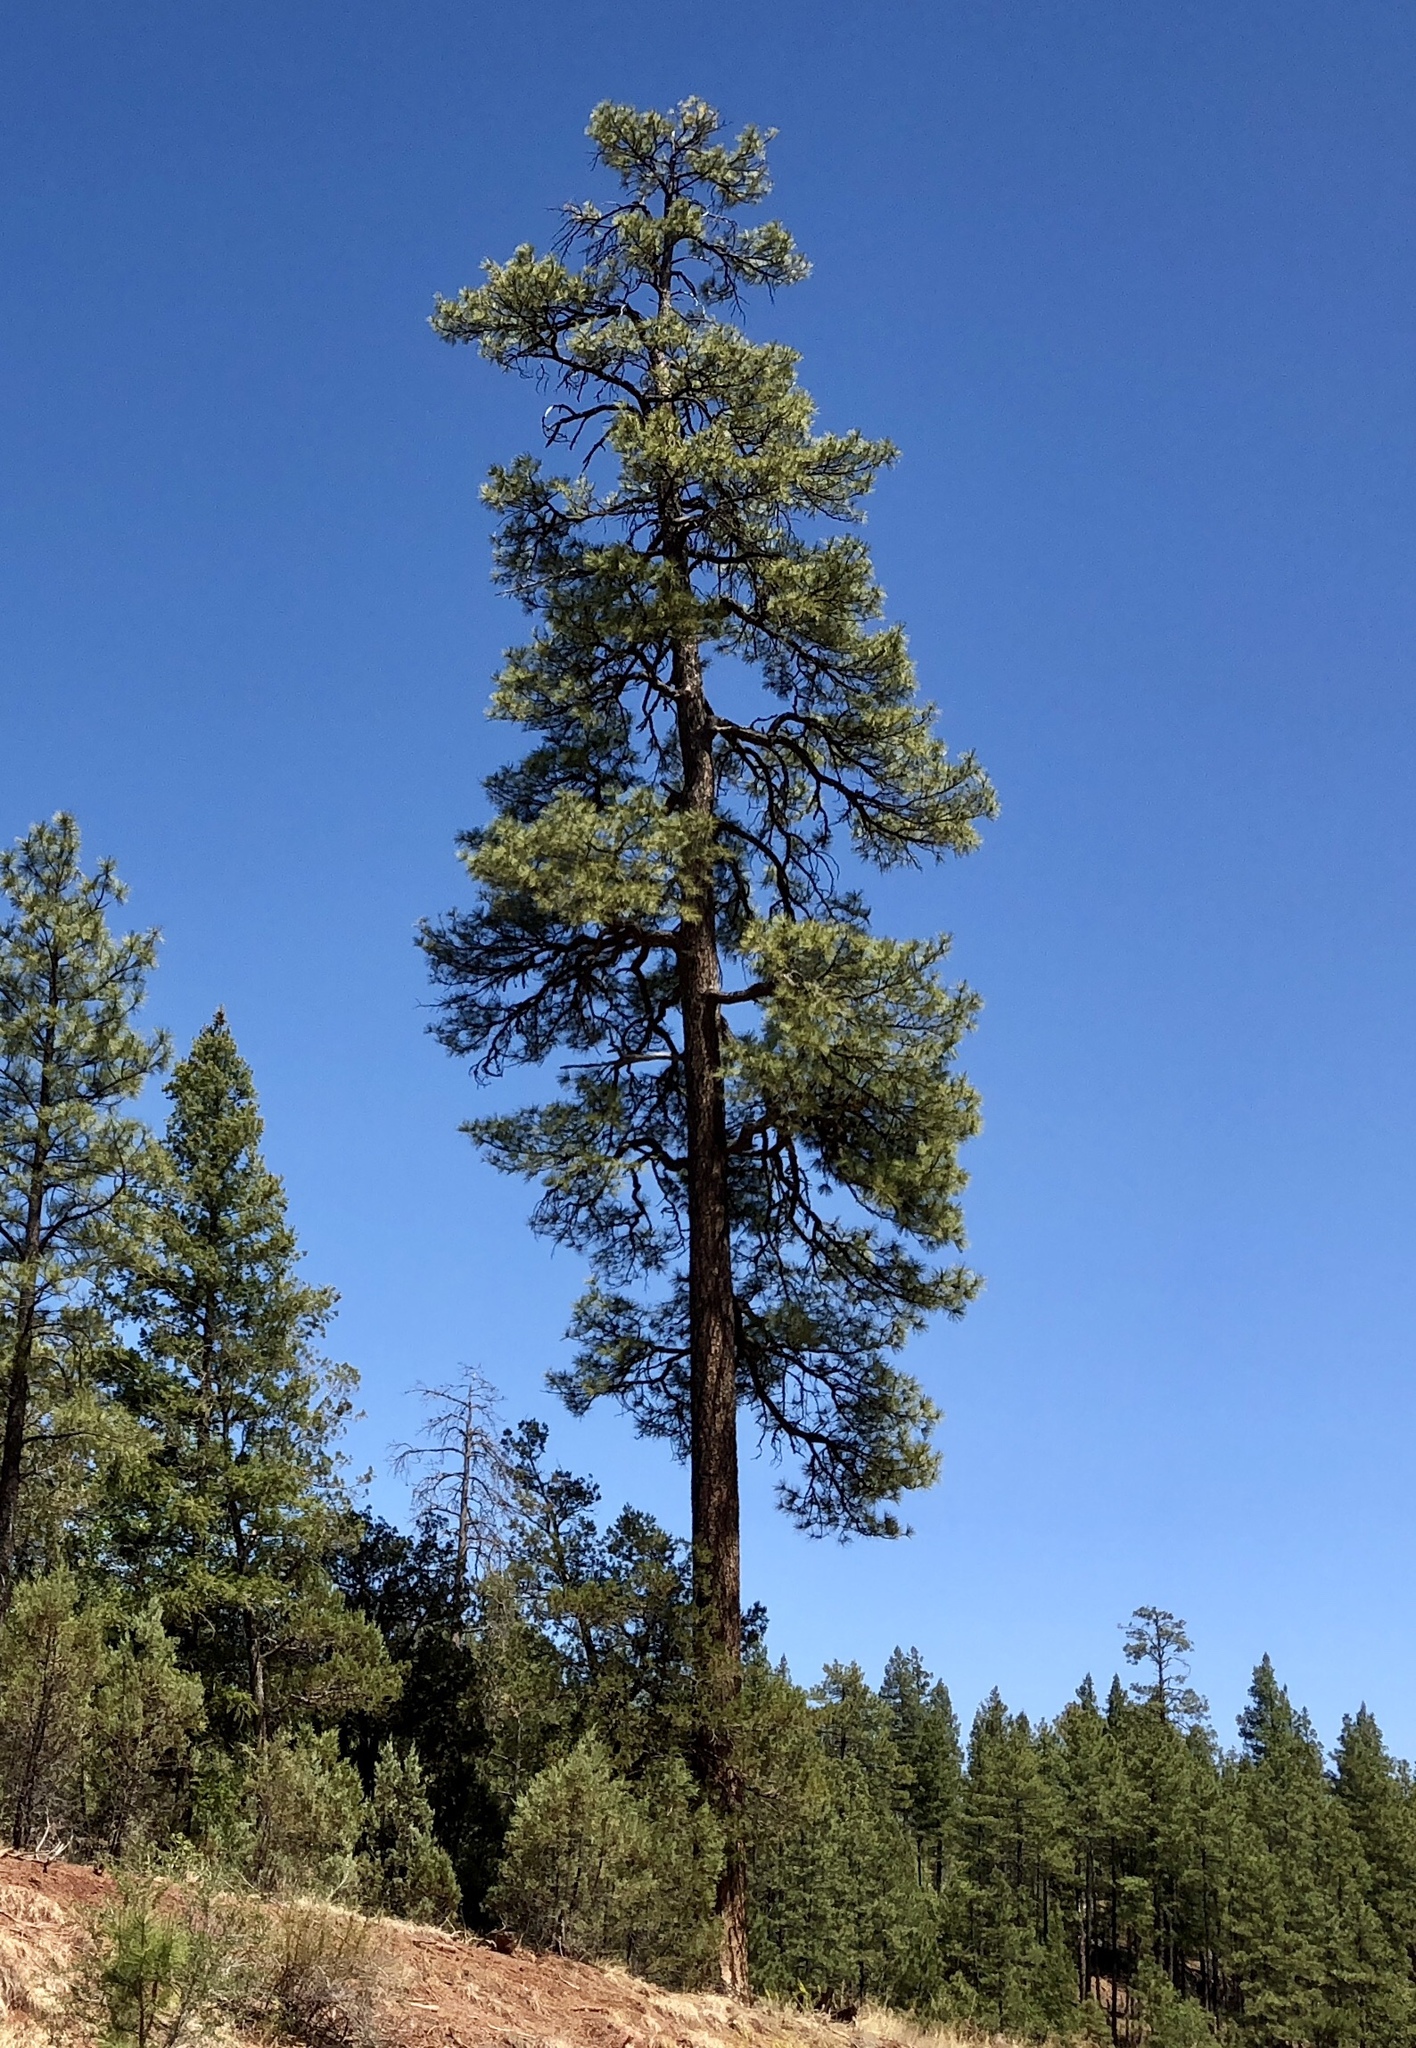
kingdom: Plantae
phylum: Tracheophyta
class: Pinopsida
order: Pinales
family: Pinaceae
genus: Pinus
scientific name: Pinus ponderosa
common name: Western yellow-pine
